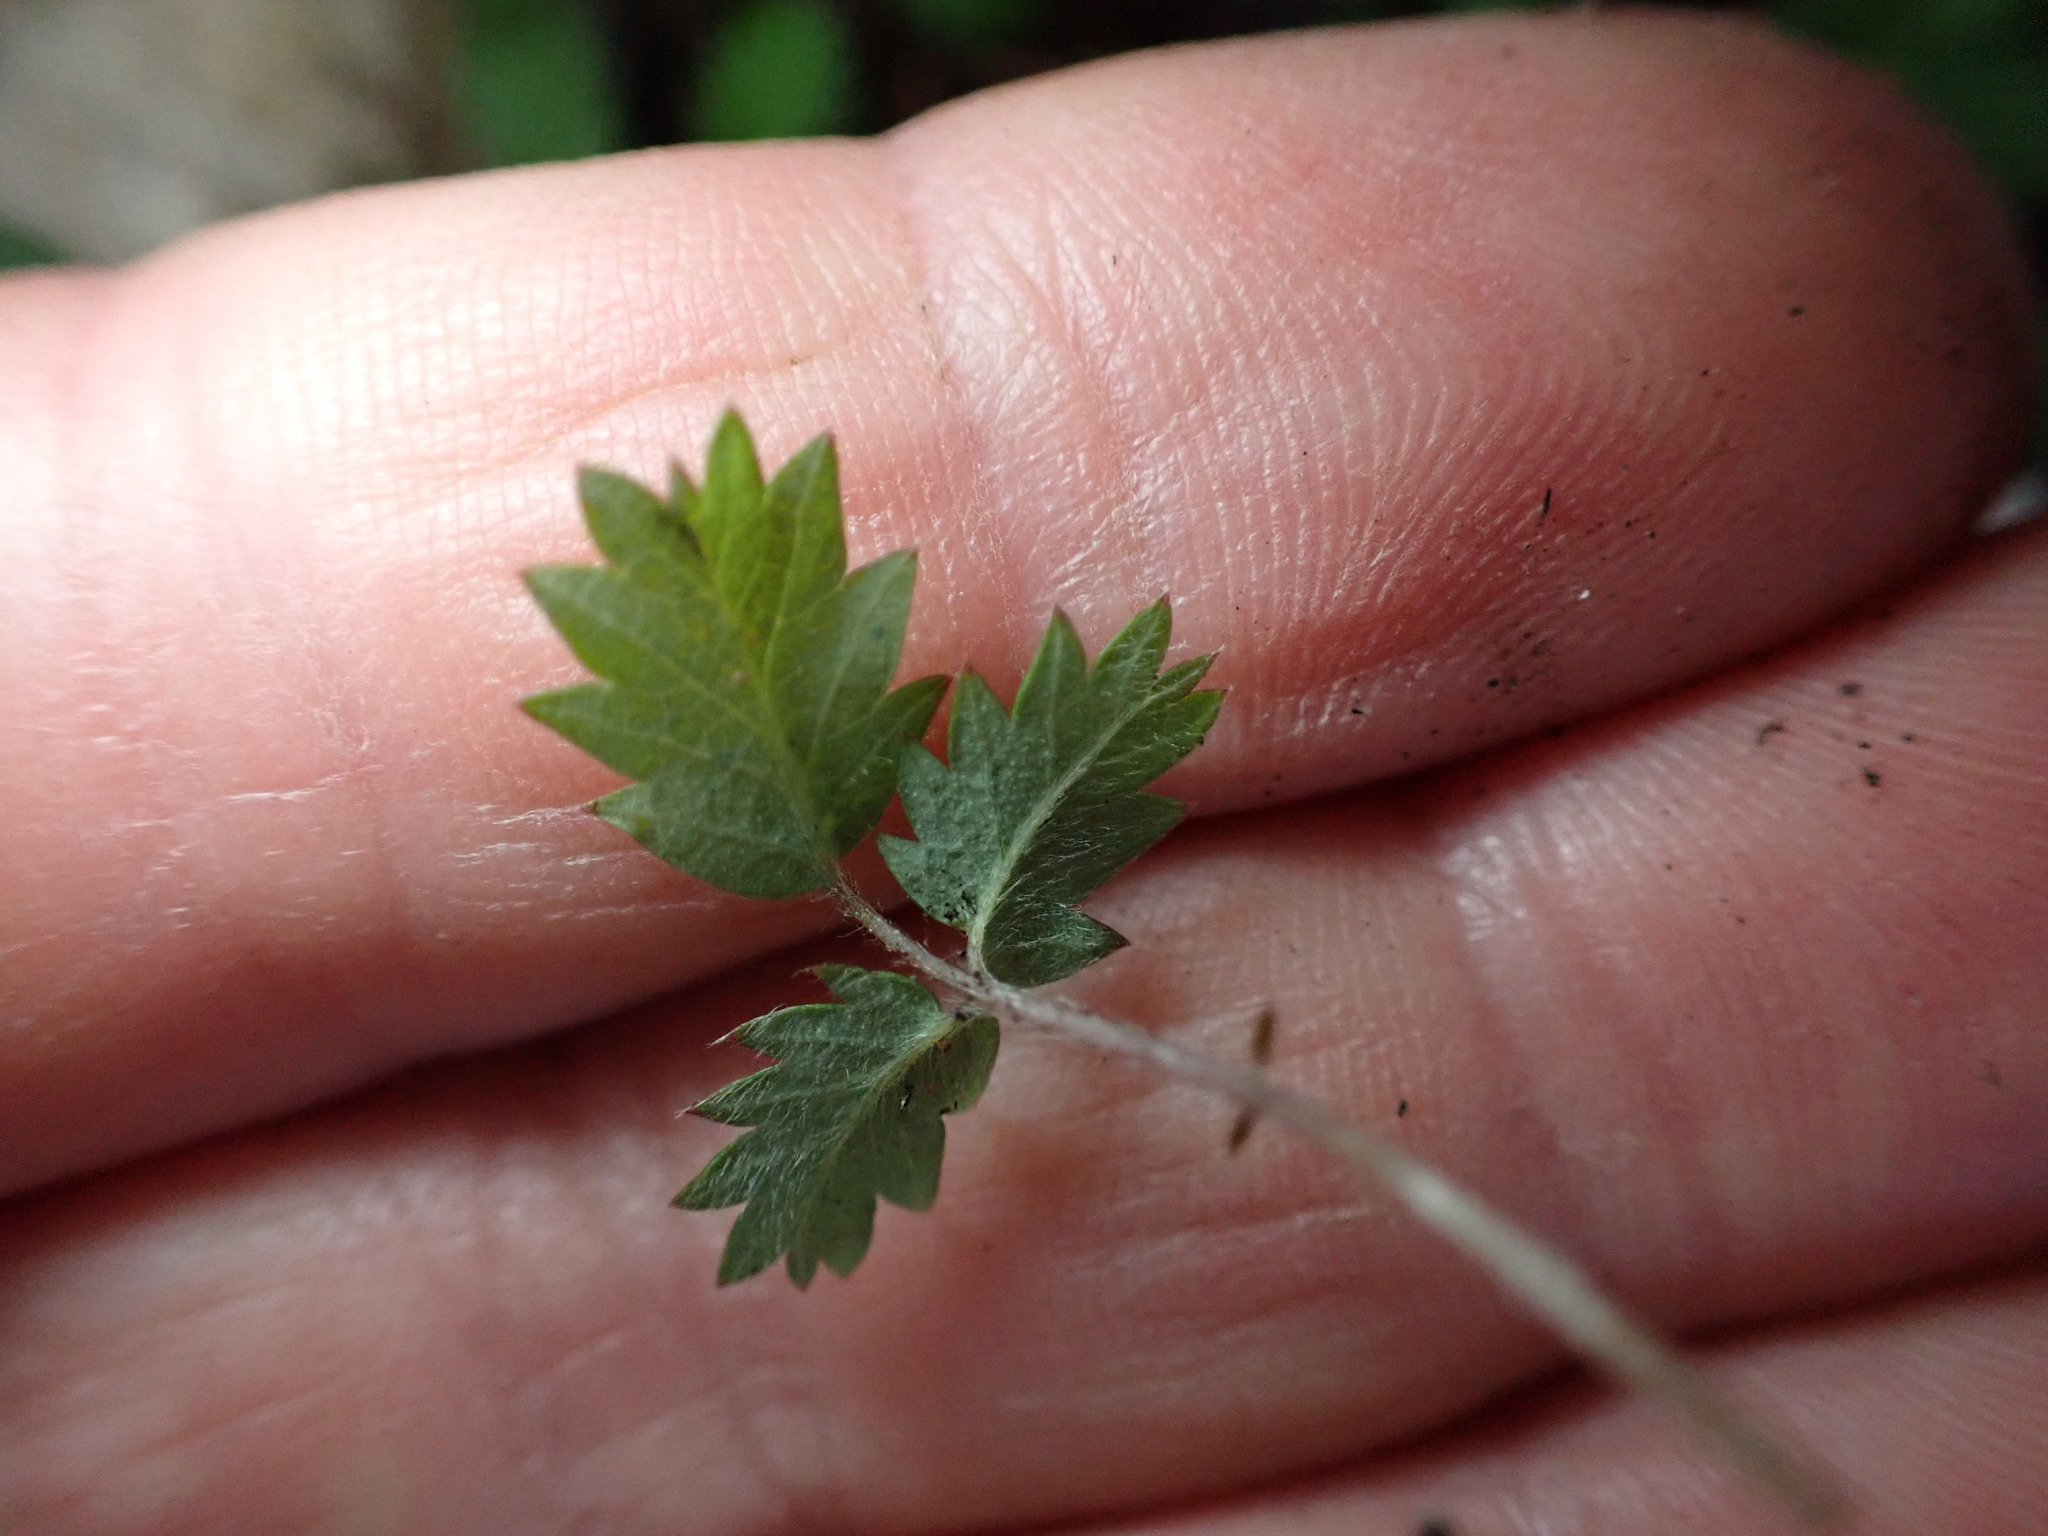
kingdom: Plantae
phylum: Tracheophyta
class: Magnoliopsida
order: Rosales
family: Rosaceae
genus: Acaena
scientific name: Acaena juvenca
